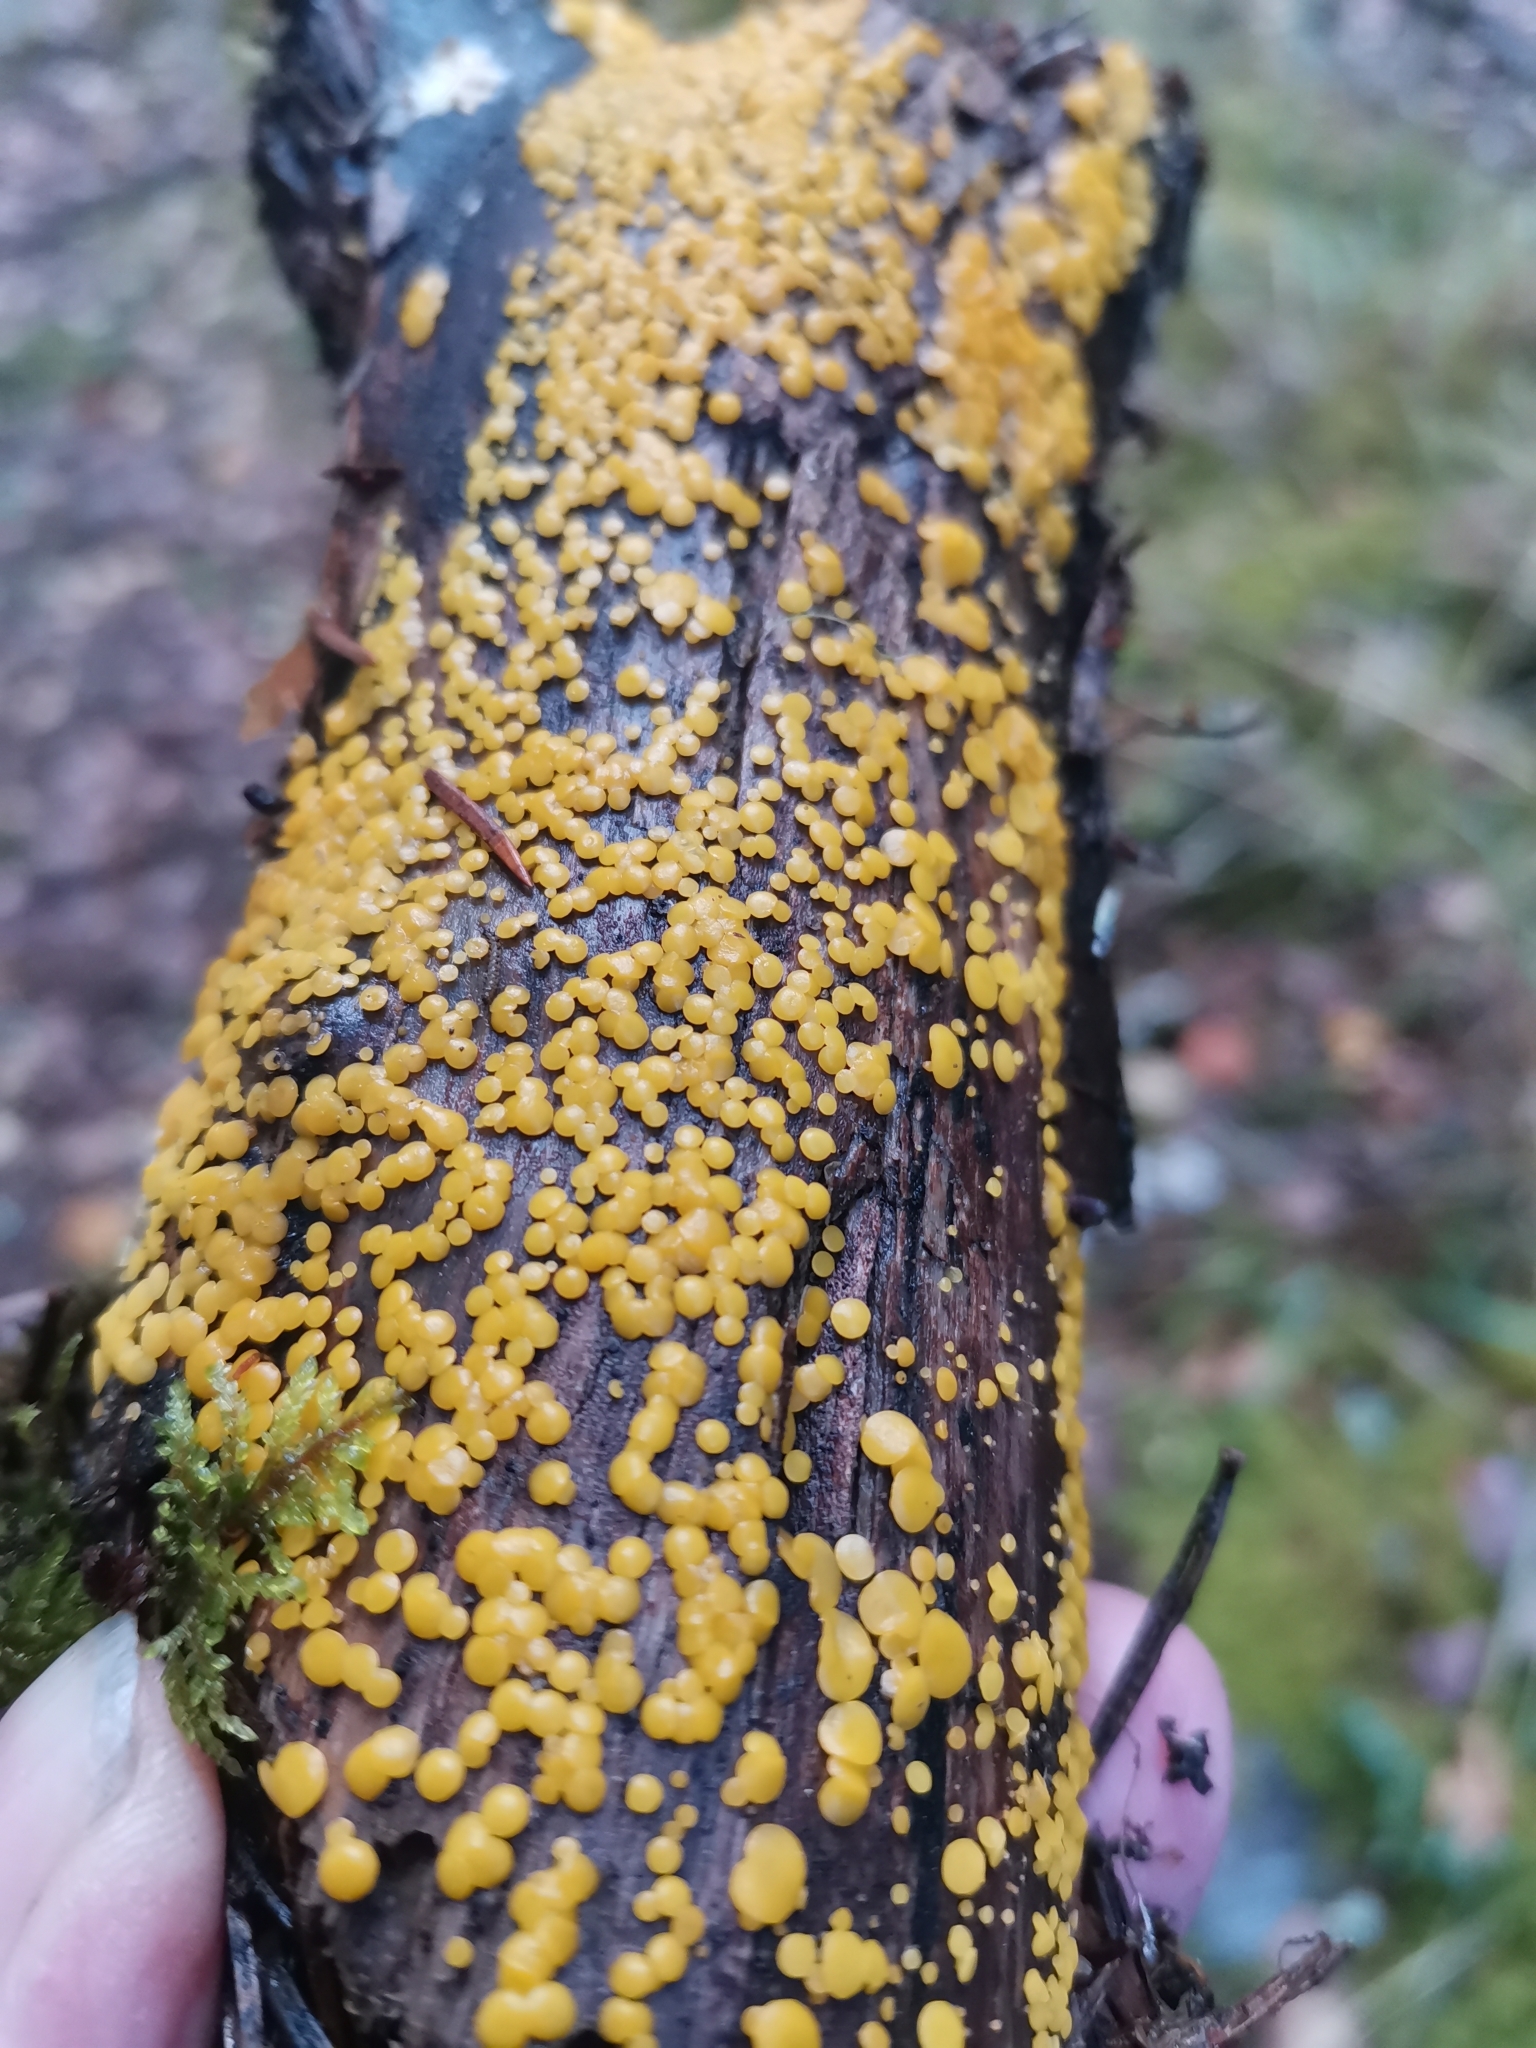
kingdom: Fungi
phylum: Ascomycota
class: Leotiomycetes
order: Helotiales
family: Pezizellaceae
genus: Calycina
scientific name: Calycina citrina
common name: Yellow fairy cups
